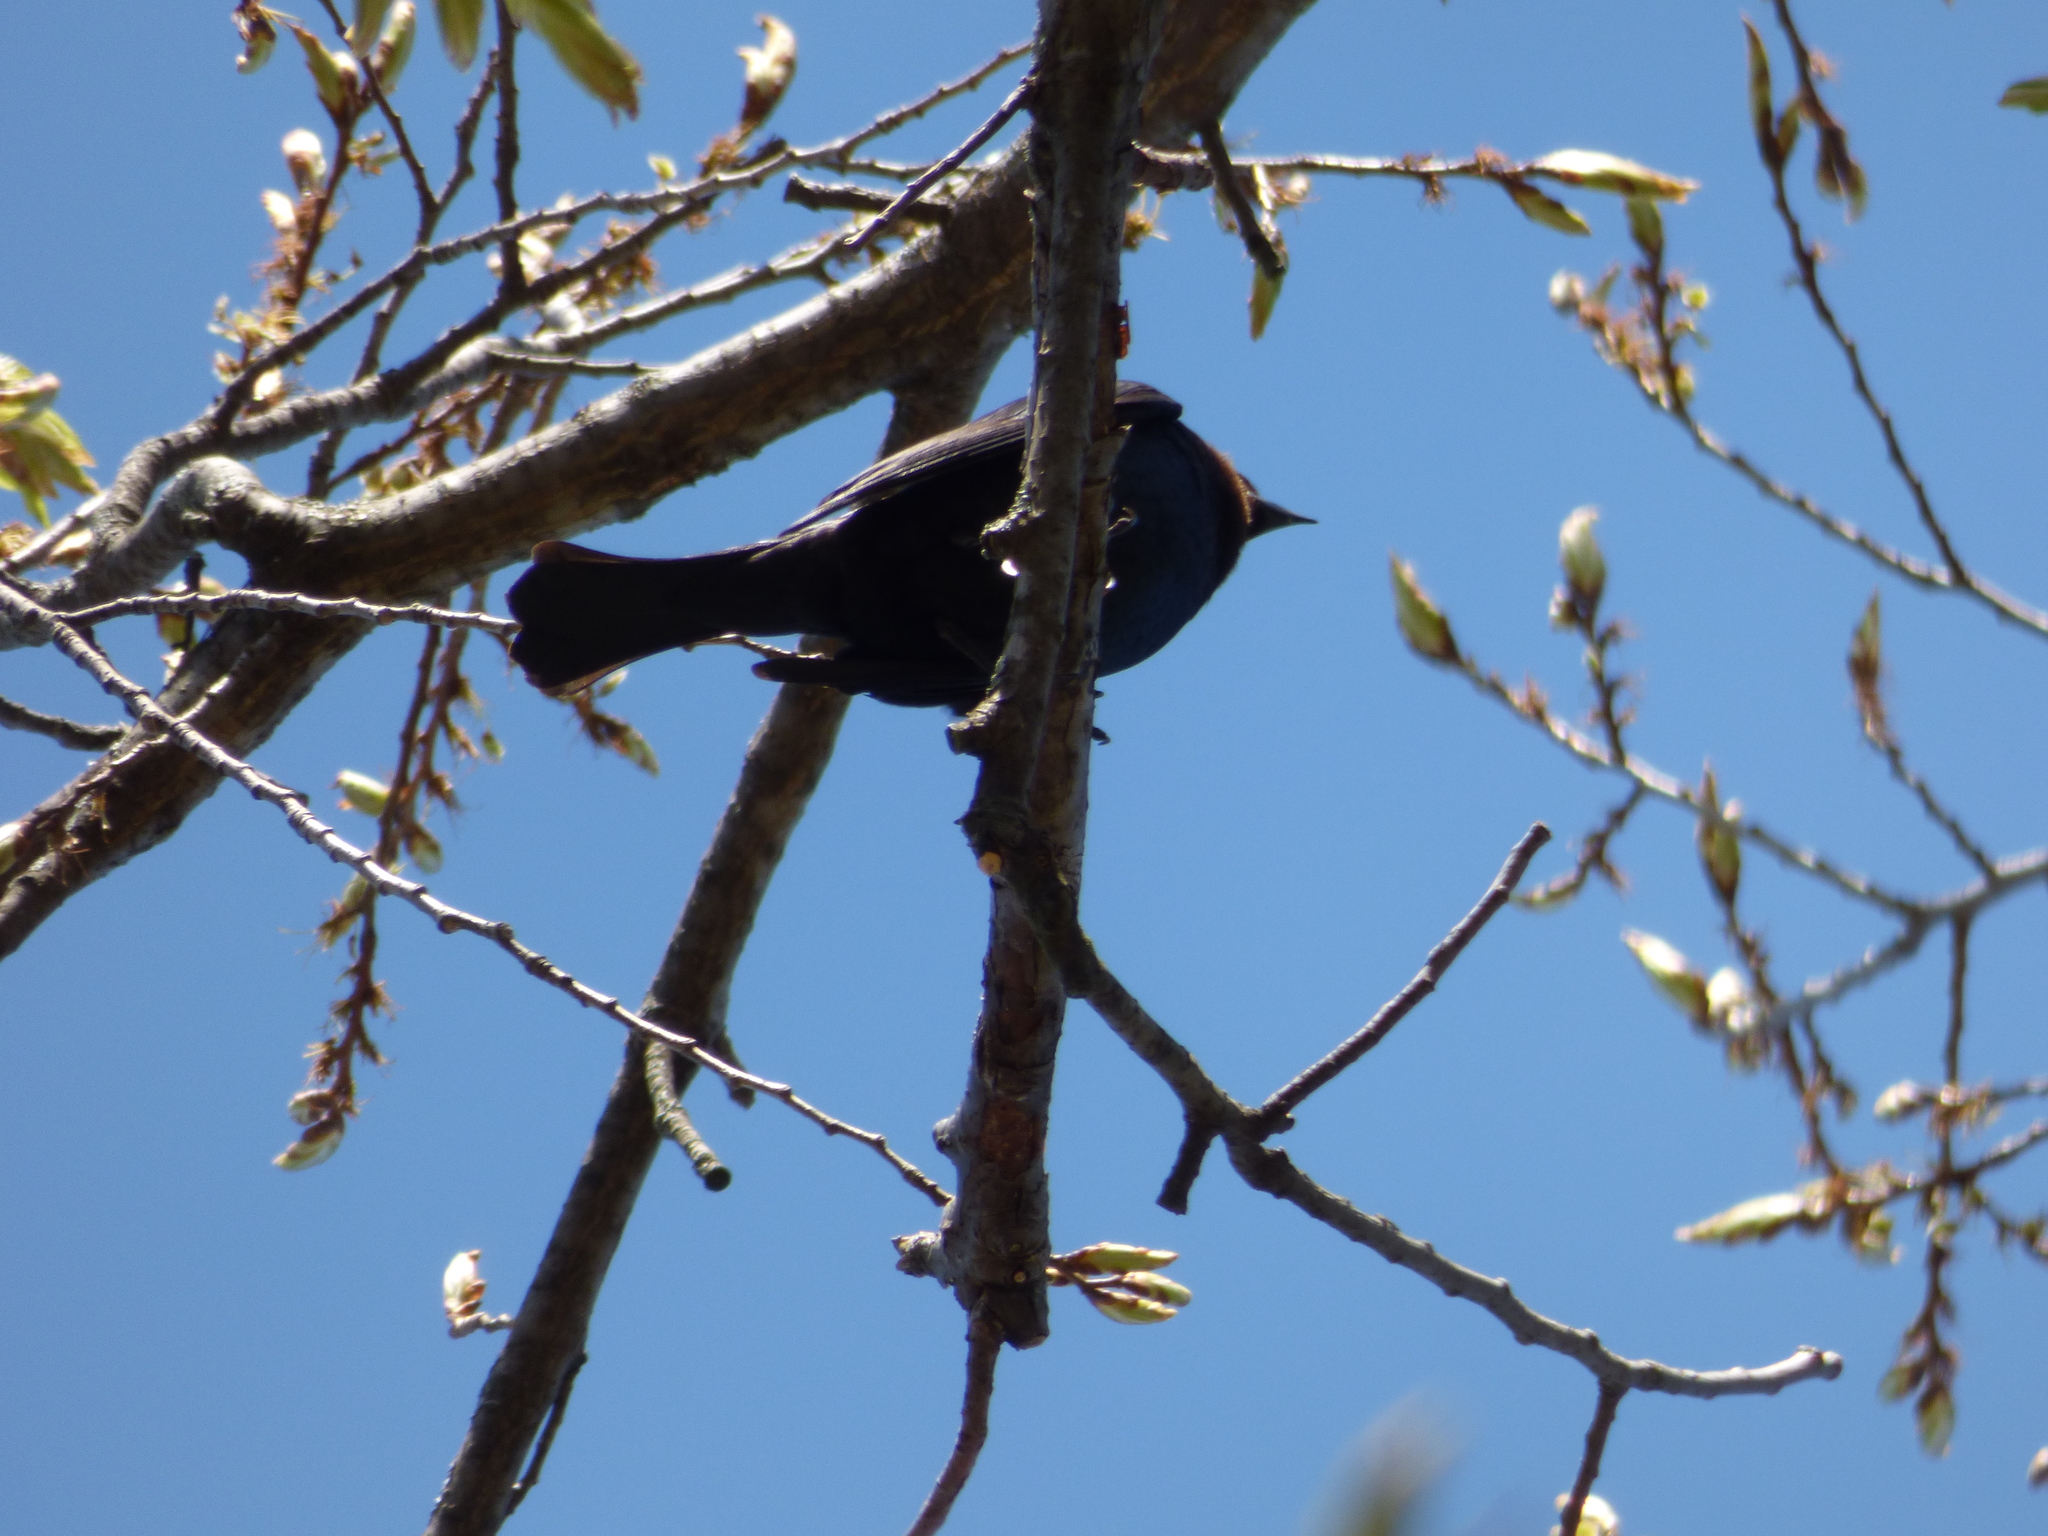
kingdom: Animalia
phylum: Chordata
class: Aves
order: Passeriformes
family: Icteridae
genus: Molothrus
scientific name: Molothrus ater
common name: Brown-headed cowbird
